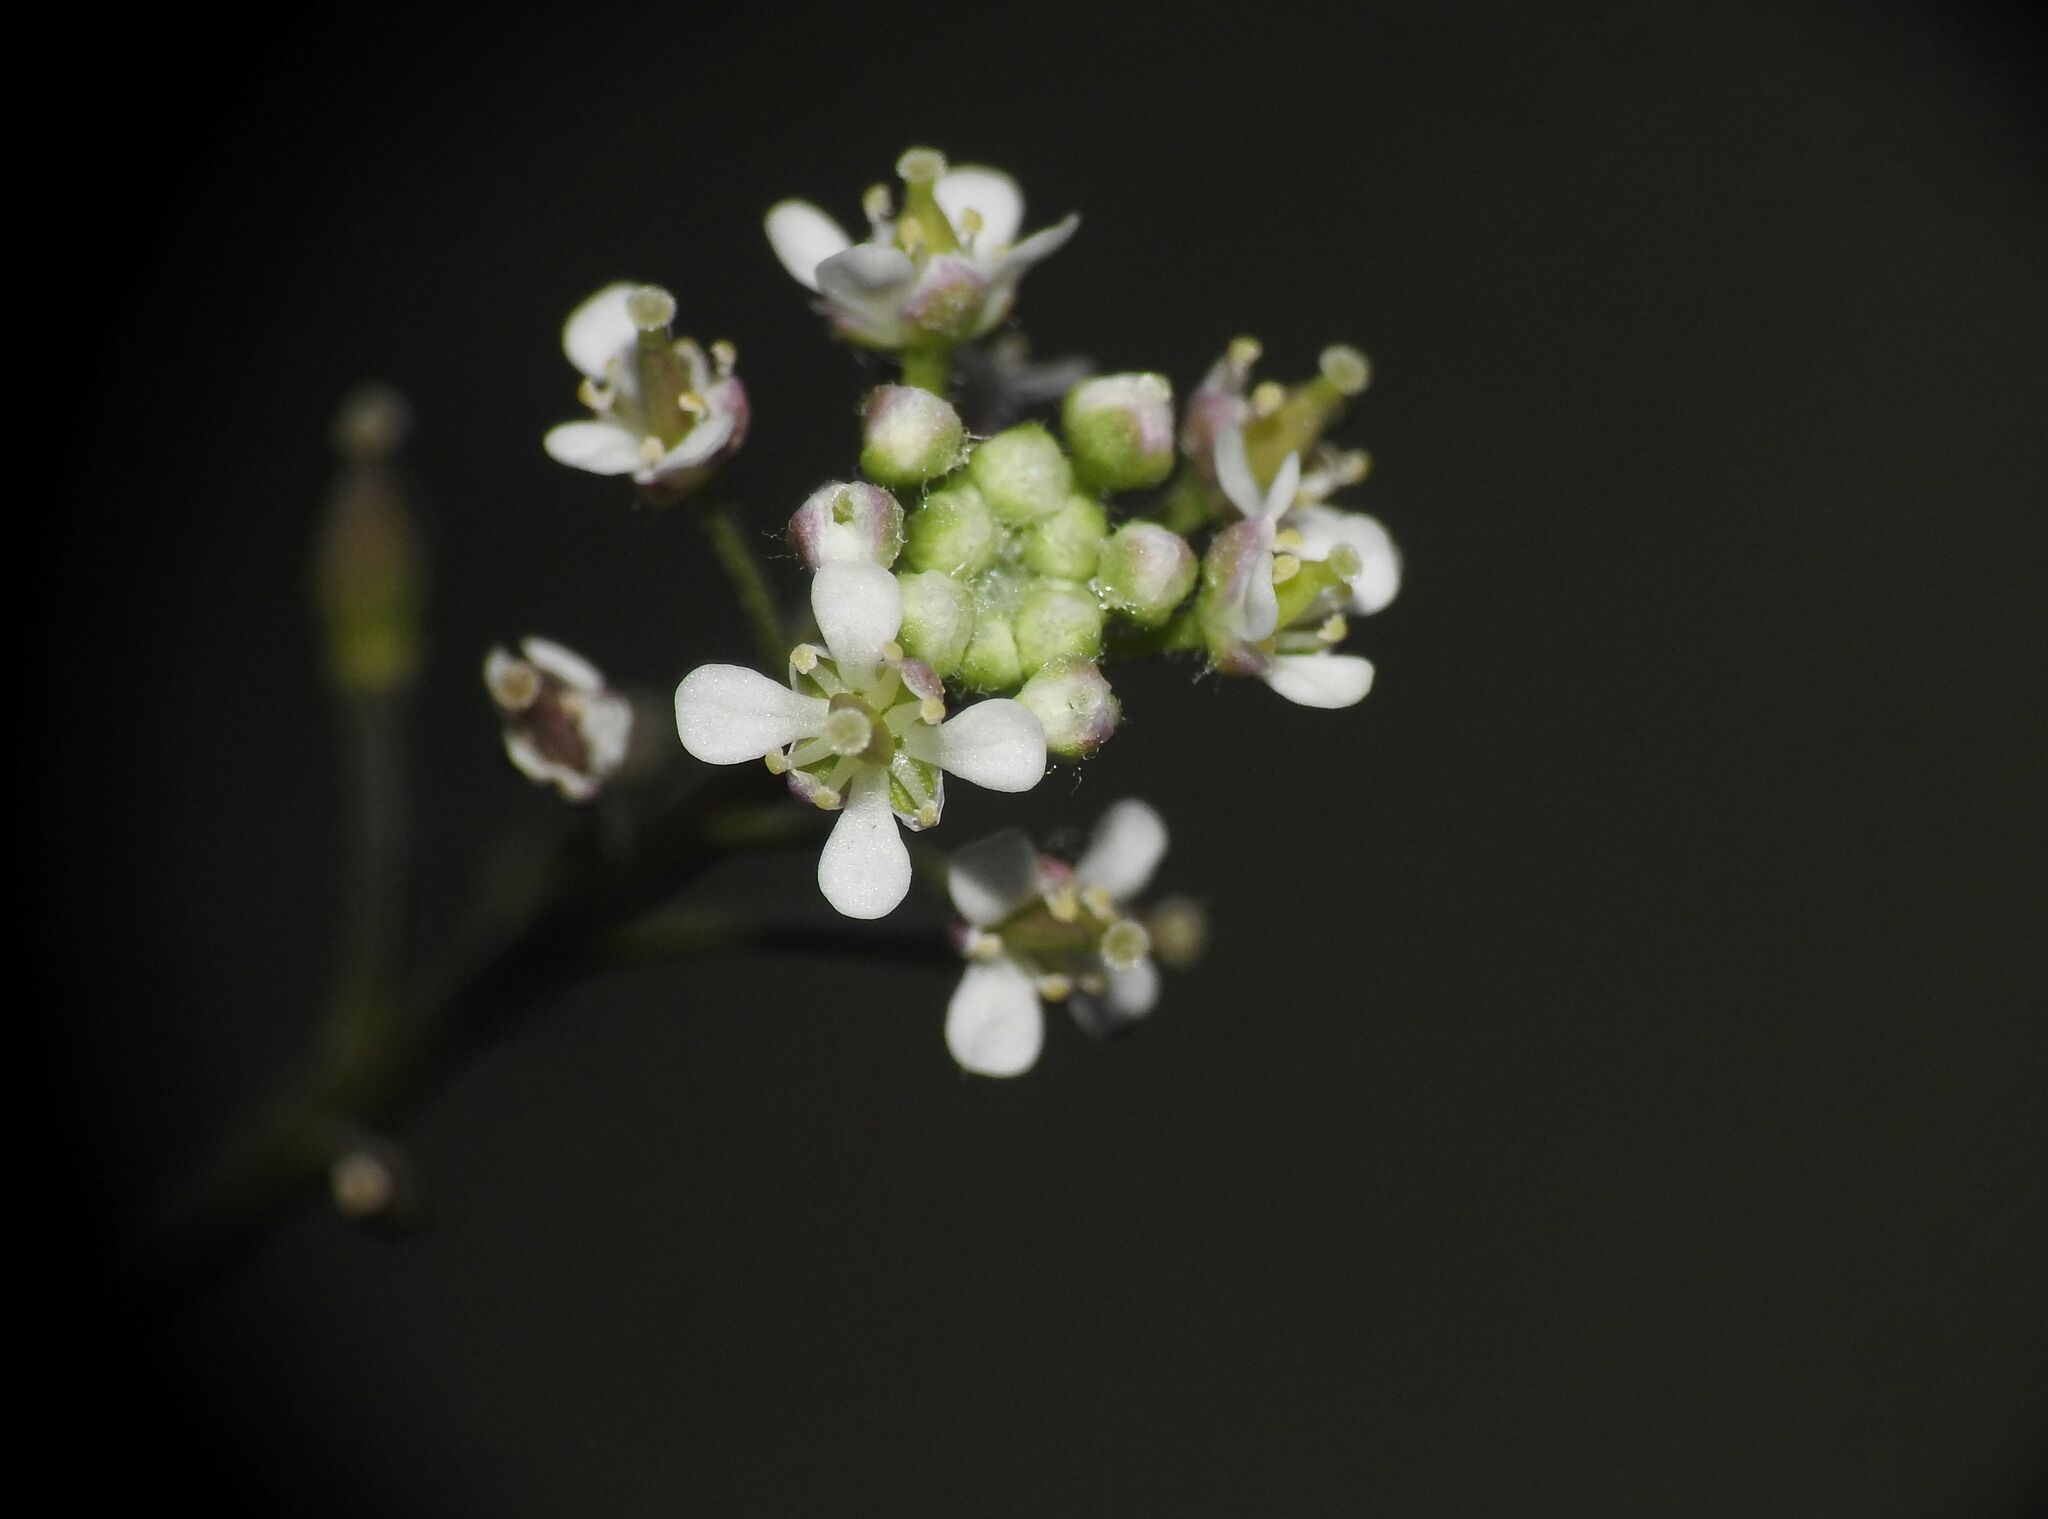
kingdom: Plantae
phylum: Tracheophyta
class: Magnoliopsida
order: Brassicales
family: Brassicaceae
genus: Lepidium
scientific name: Lepidium graminifolium
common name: Tall pepperwort
